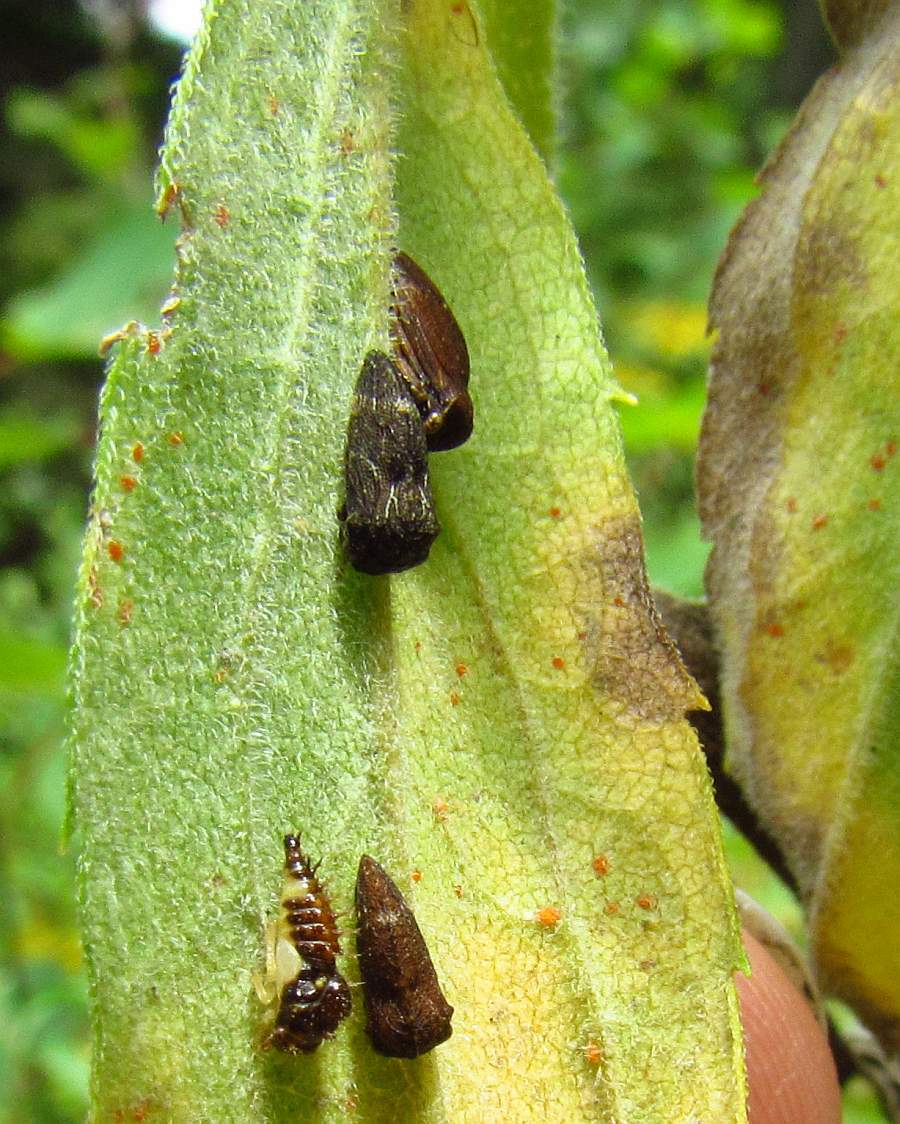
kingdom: Animalia
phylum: Arthropoda
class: Insecta
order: Hemiptera
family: Membracidae
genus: Publilia
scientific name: Publilia concava
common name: Aster treehopper
